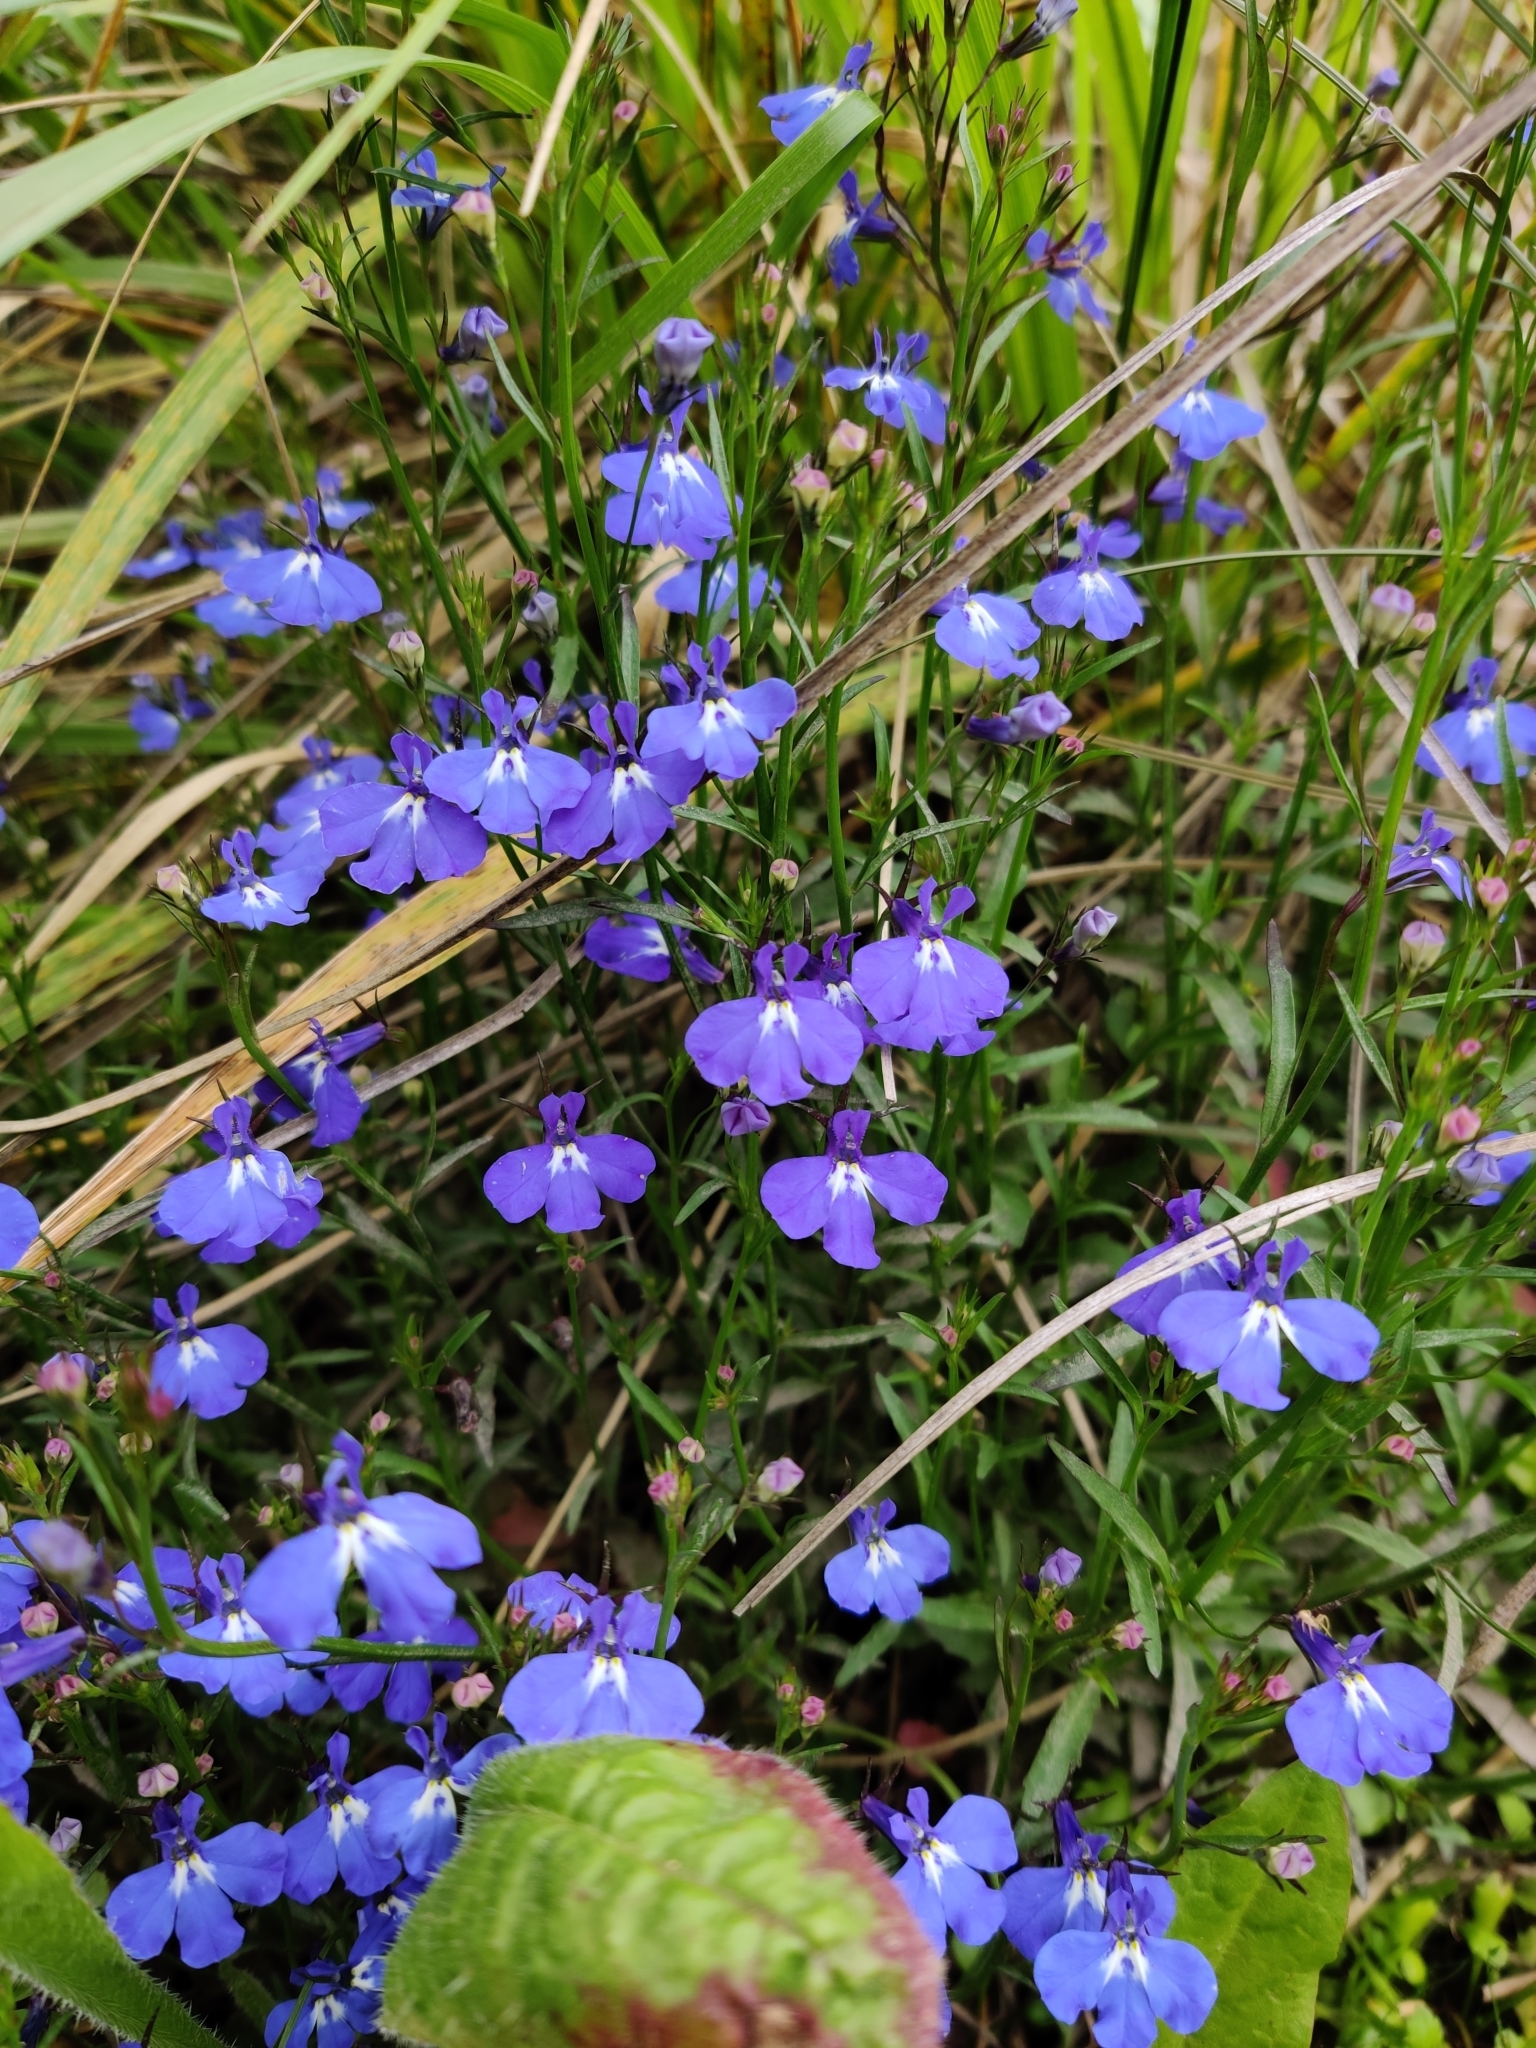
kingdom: Plantae
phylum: Tracheophyta
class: Magnoliopsida
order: Asterales
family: Campanulaceae
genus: Lobelia
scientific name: Lobelia erinus
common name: Edging lobelia
